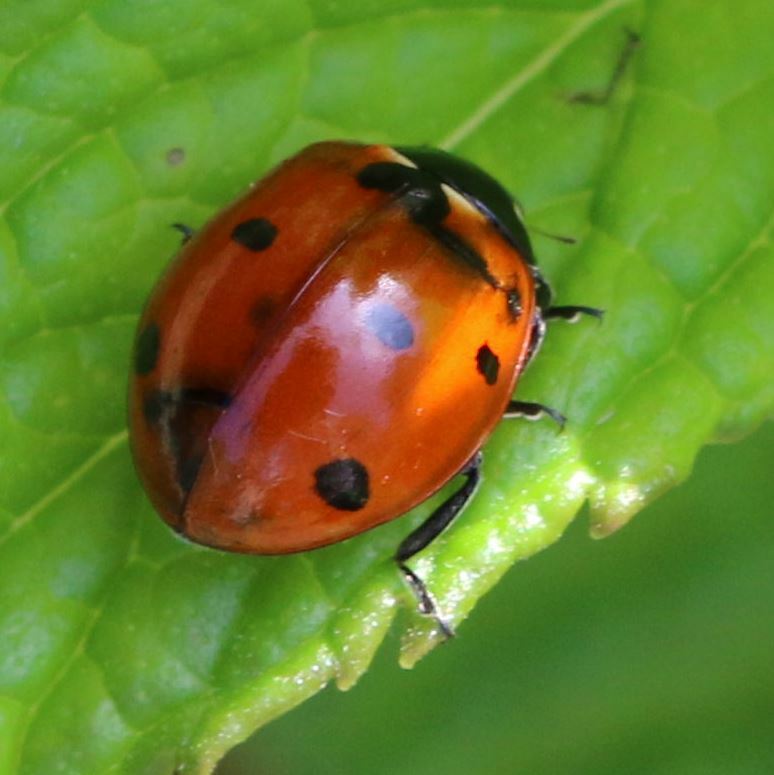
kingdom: Animalia
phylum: Arthropoda
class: Insecta
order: Coleoptera
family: Coccinellidae
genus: Coccinella
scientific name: Coccinella septempunctata
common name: Sevenspotted lady beetle
